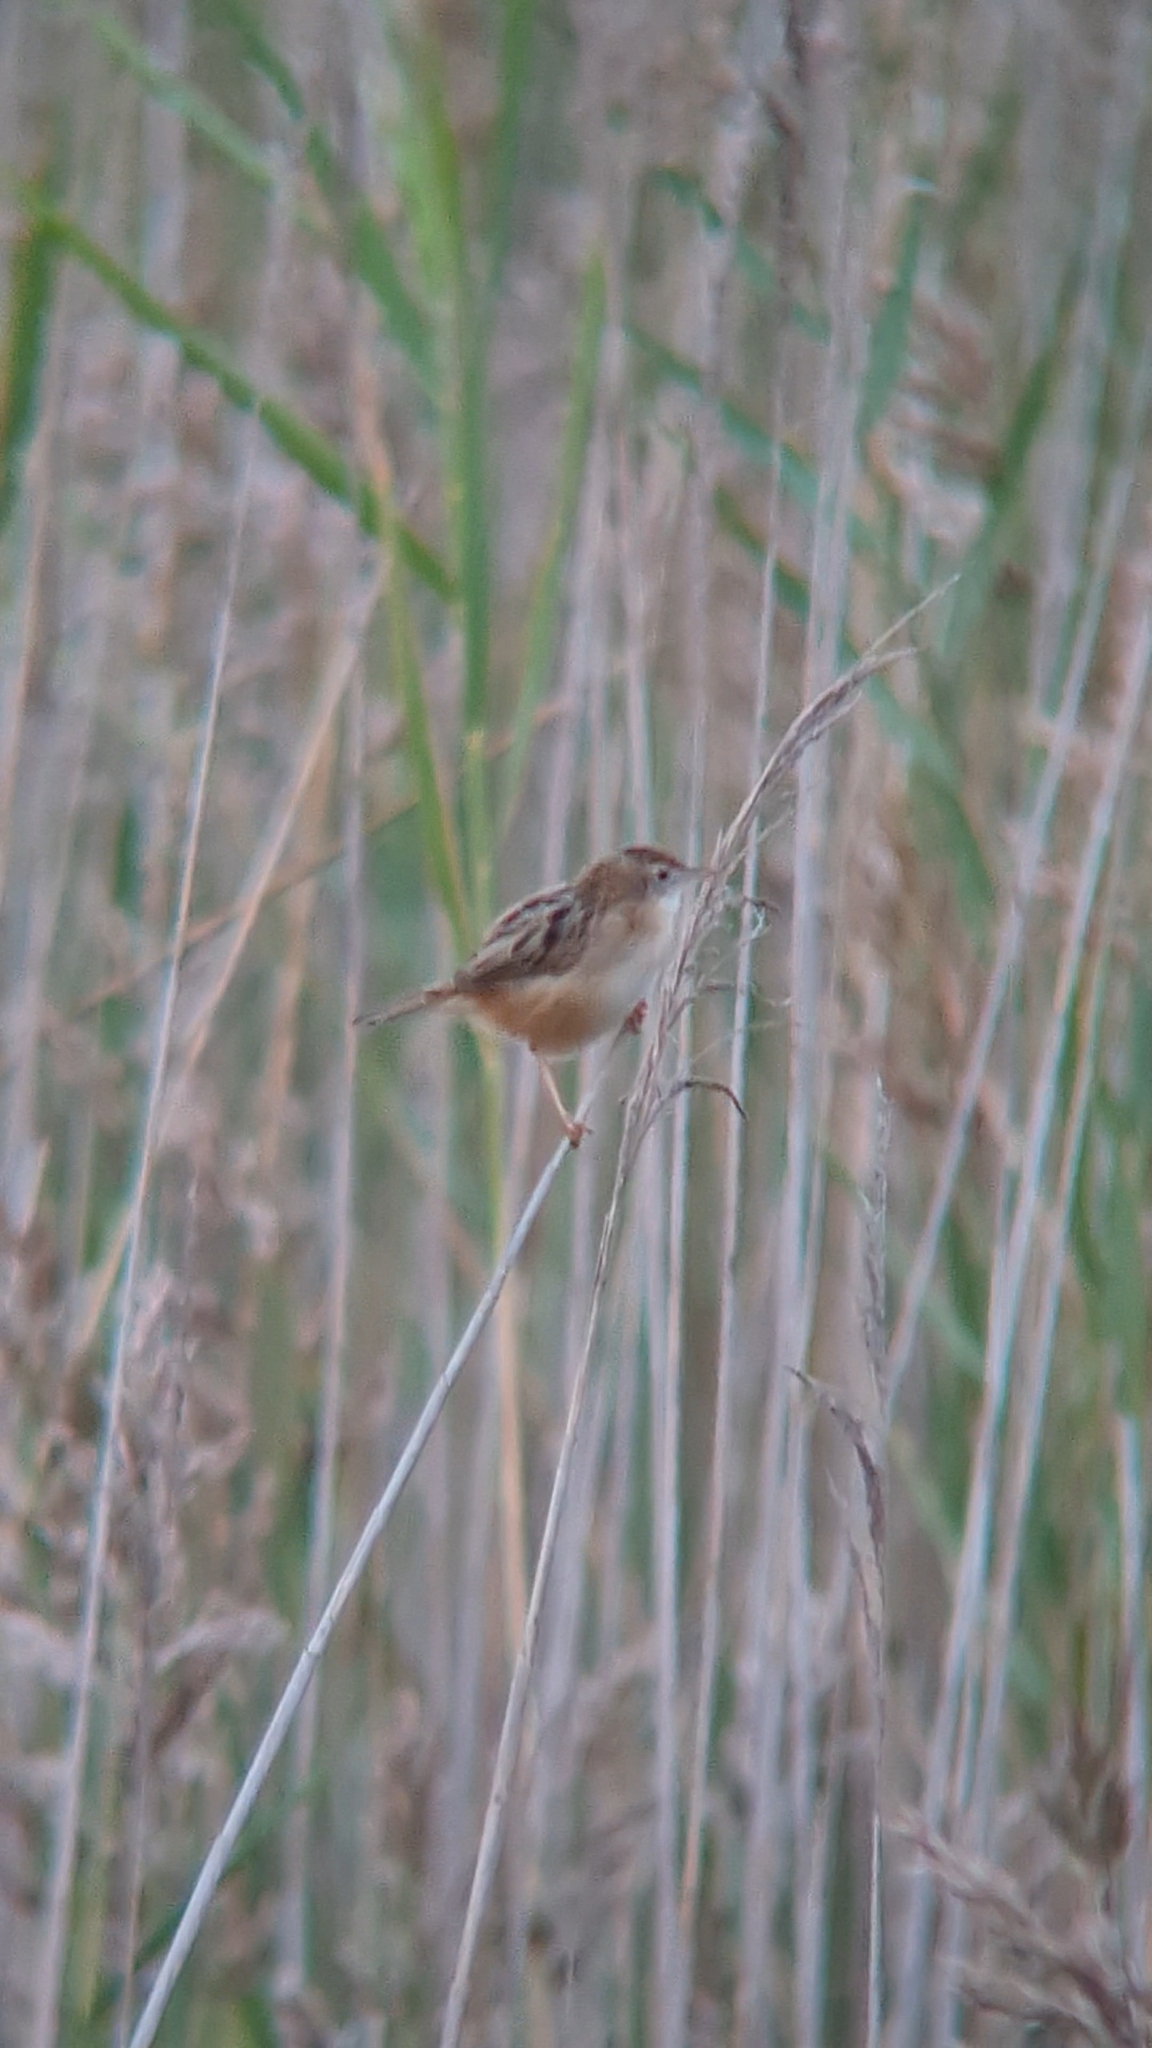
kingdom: Animalia
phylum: Chordata
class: Aves
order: Passeriformes
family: Cisticolidae
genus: Cisticola
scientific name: Cisticola juncidis
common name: Zitting cisticola
